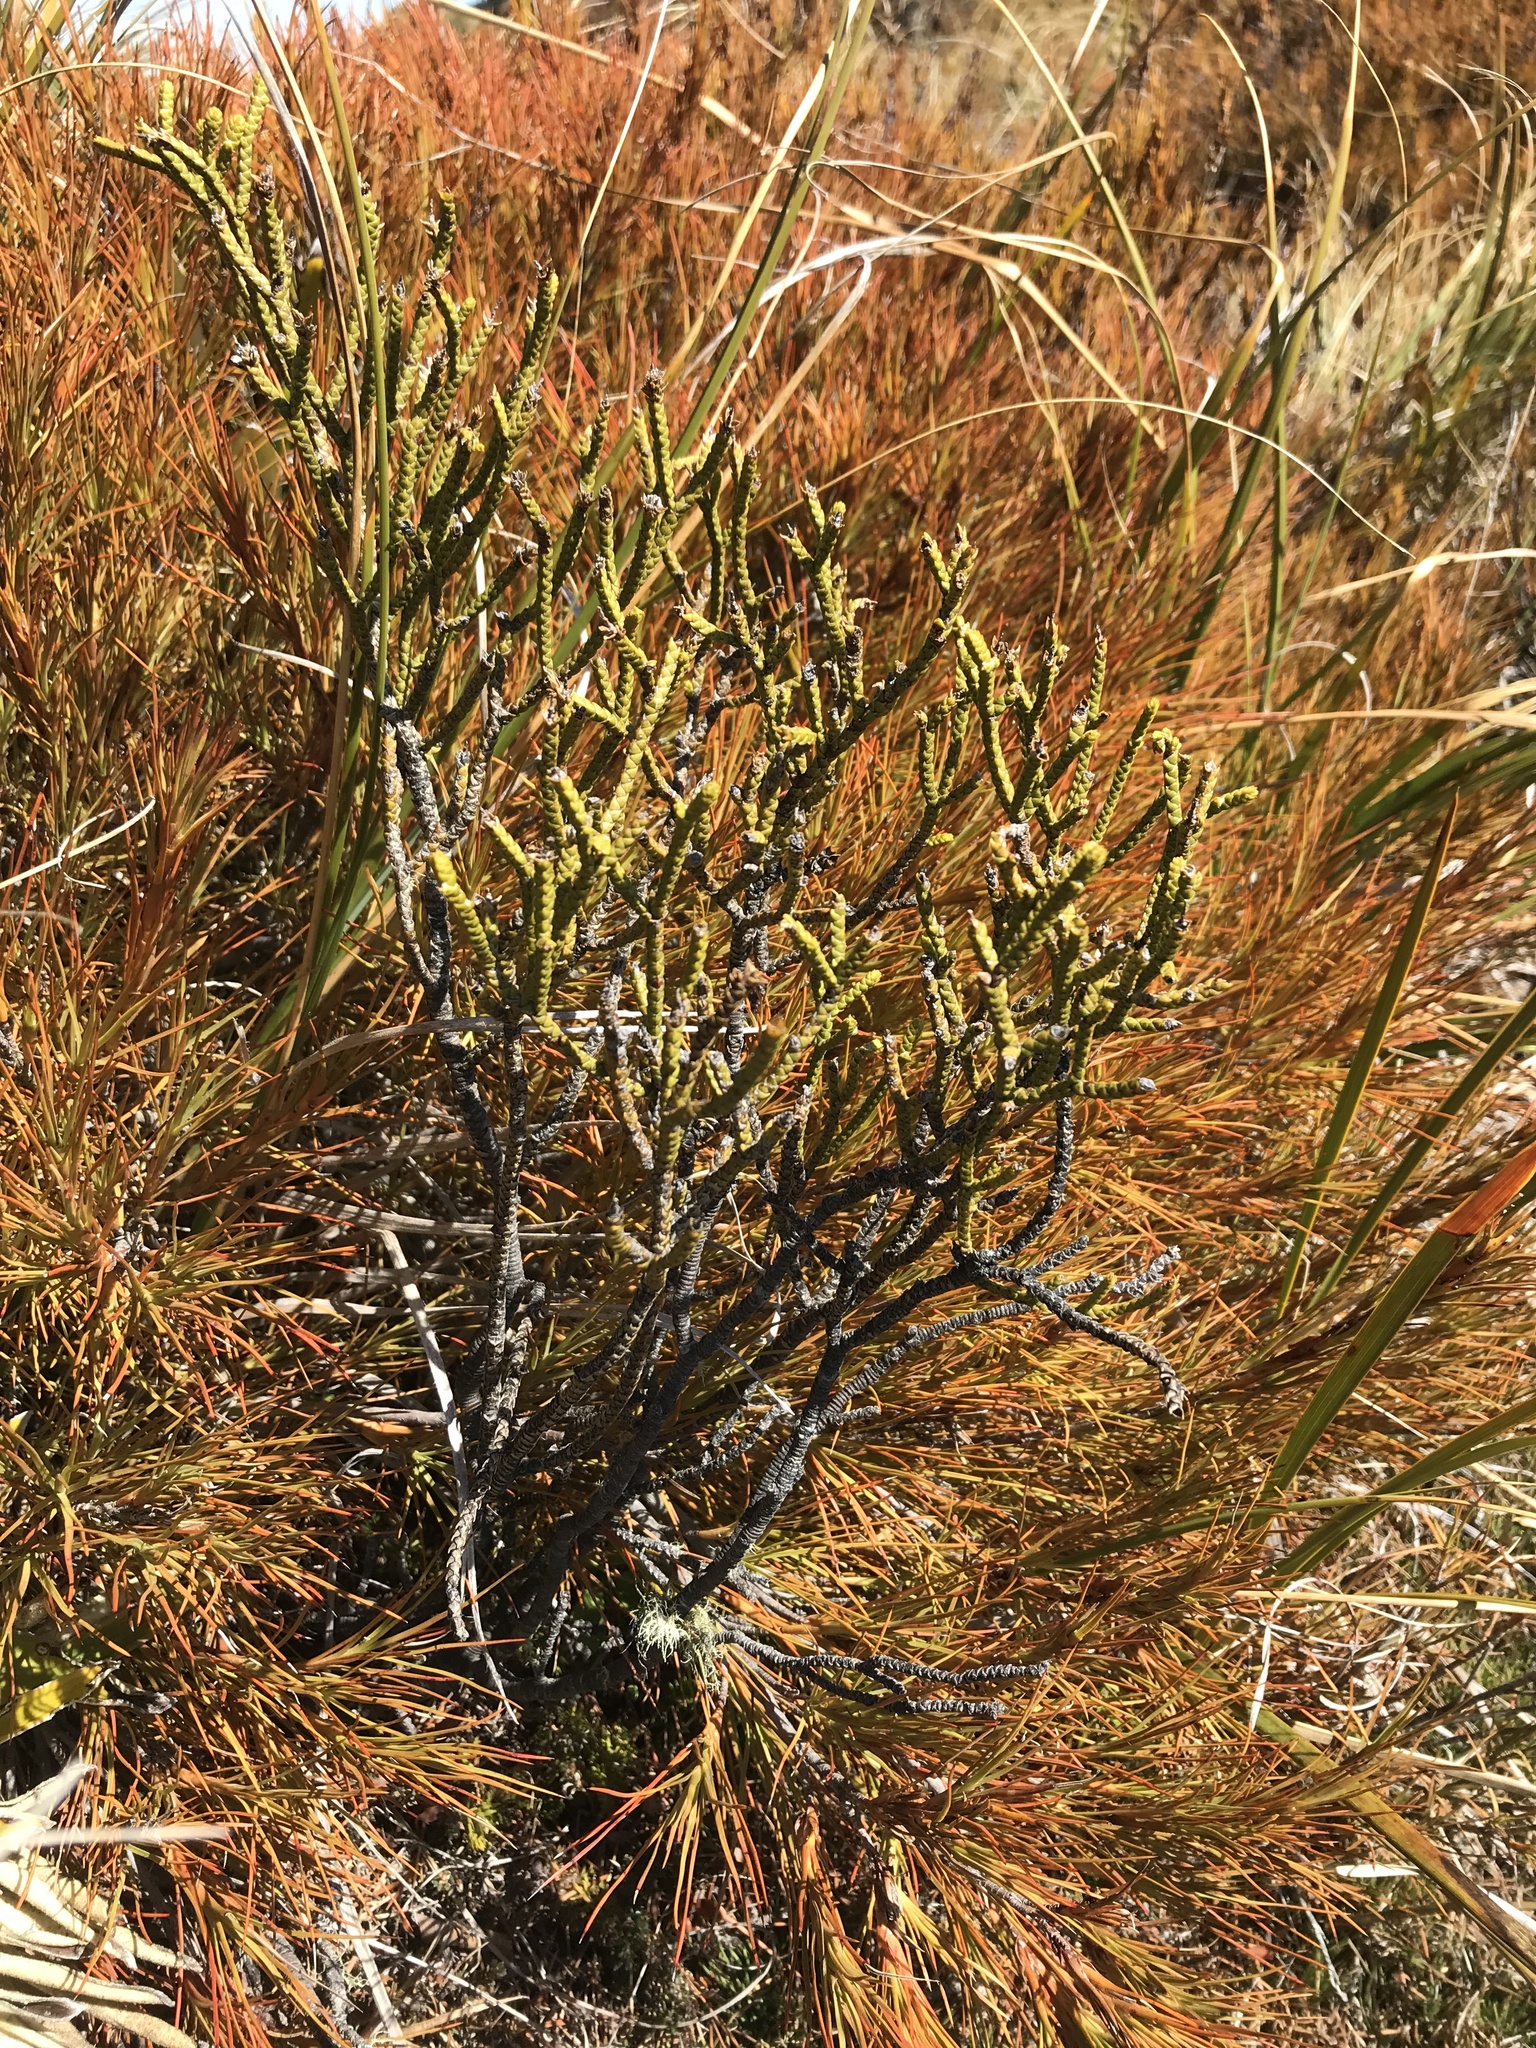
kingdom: Plantae
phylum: Tracheophyta
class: Magnoliopsida
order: Lamiales
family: Plantaginaceae
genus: Veronica
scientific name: Veronica lycopodioides
